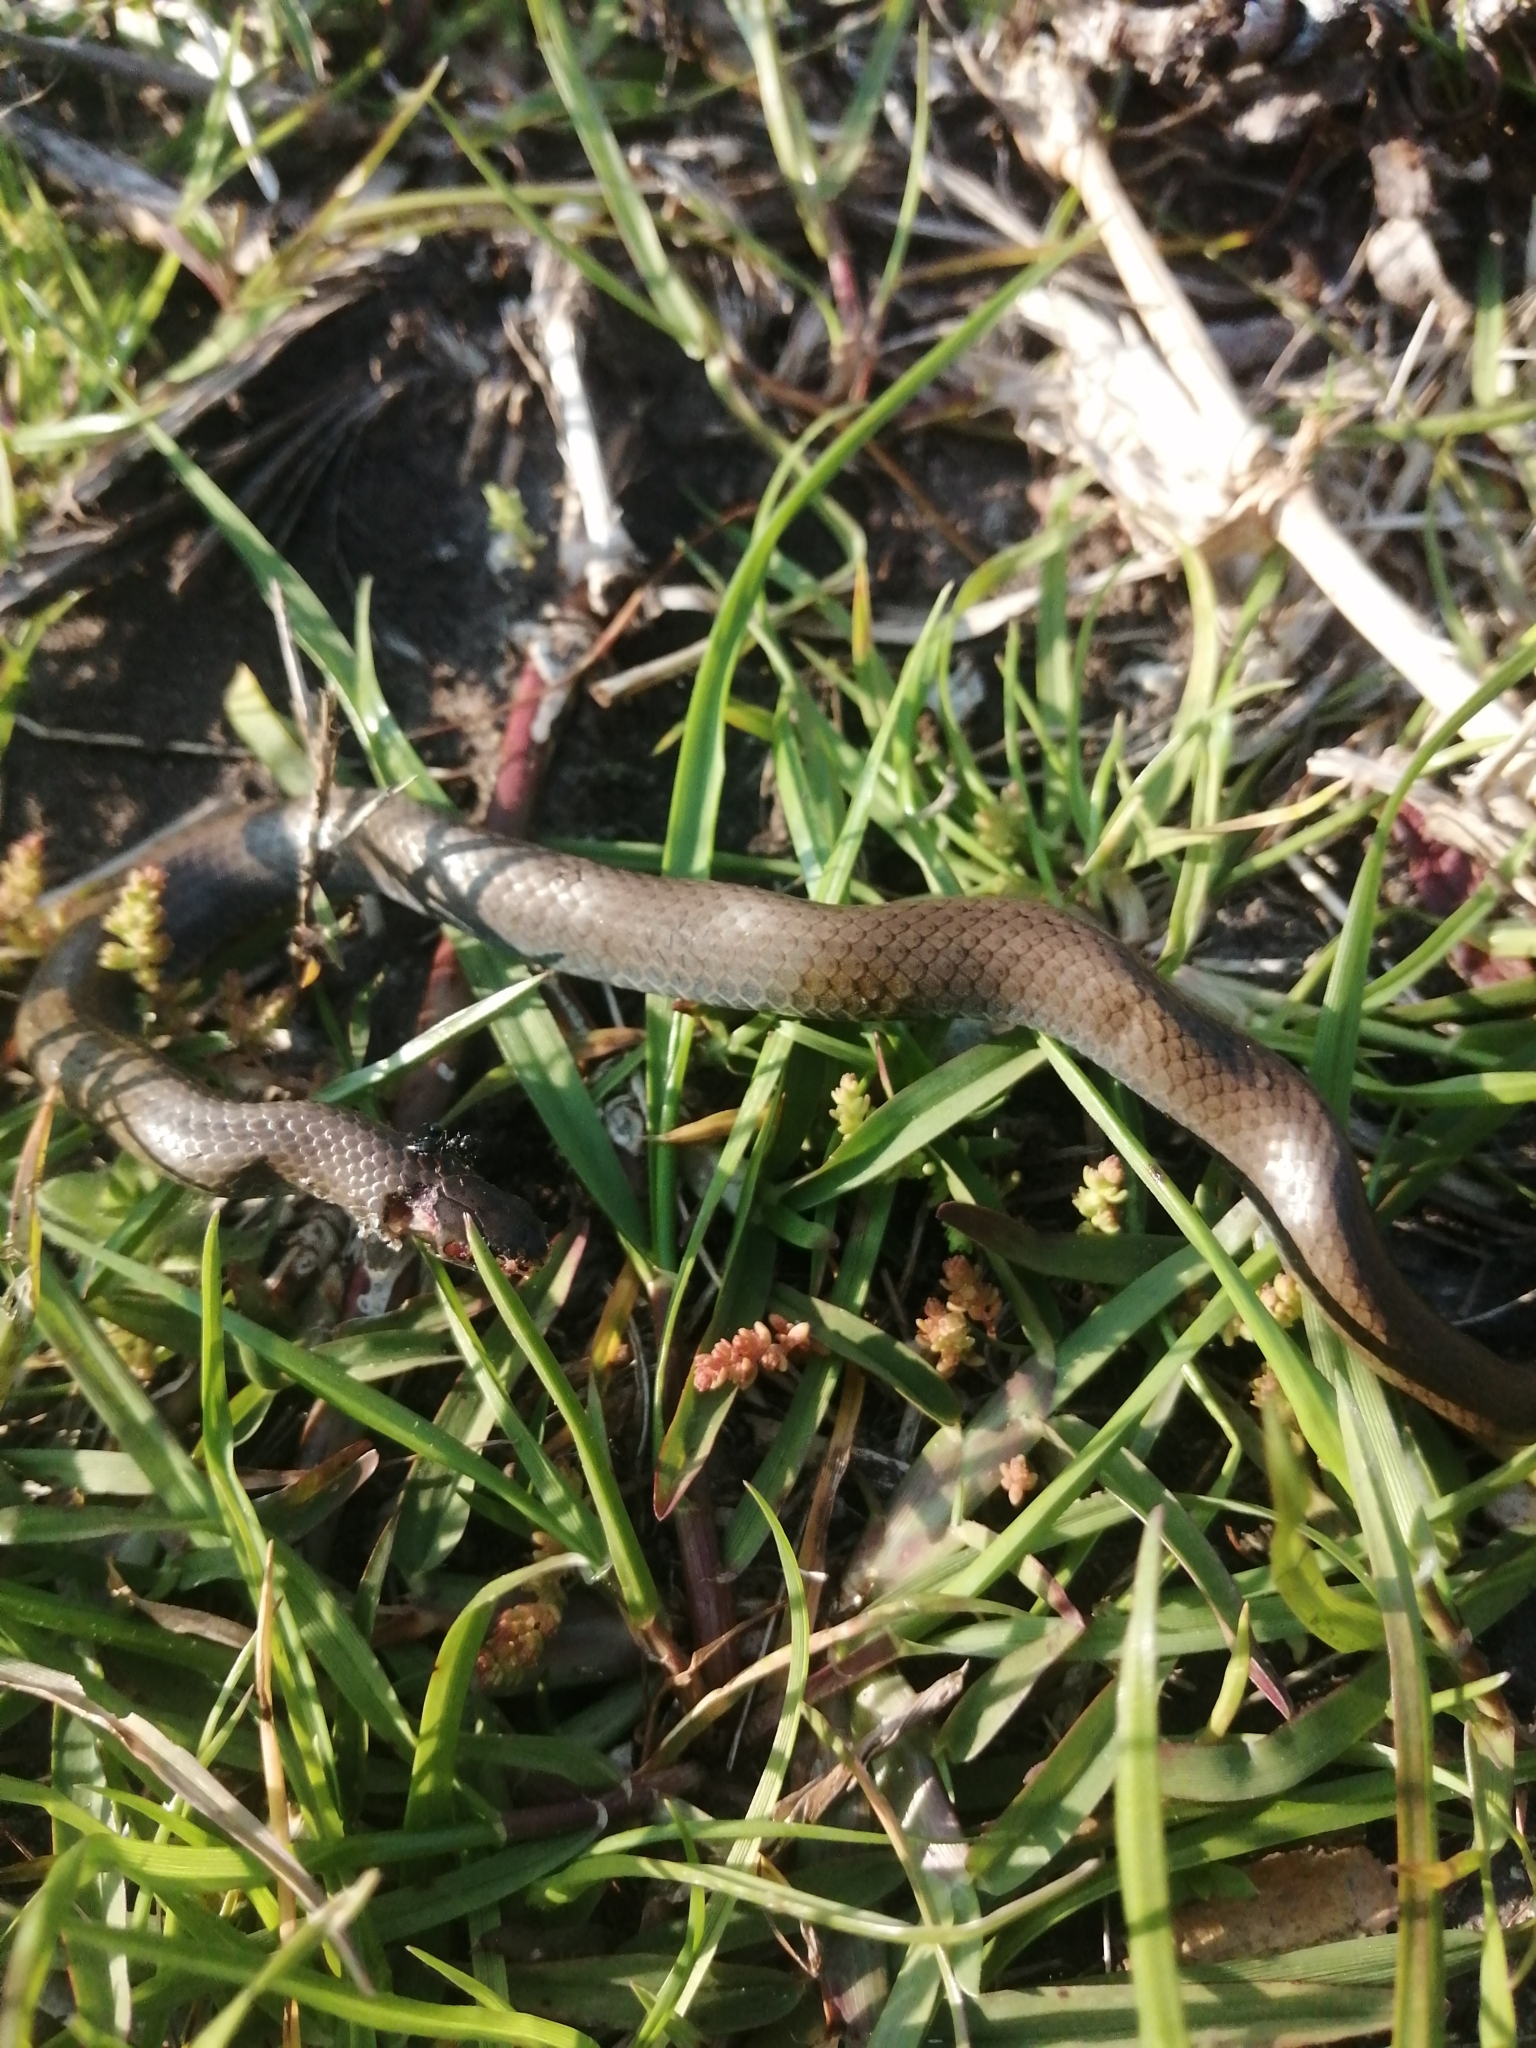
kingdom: Animalia
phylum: Chordata
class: Squamata
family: Pseudoxyrhophiidae
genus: Duberria
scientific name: Duberria lutrix
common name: Common slug eater
